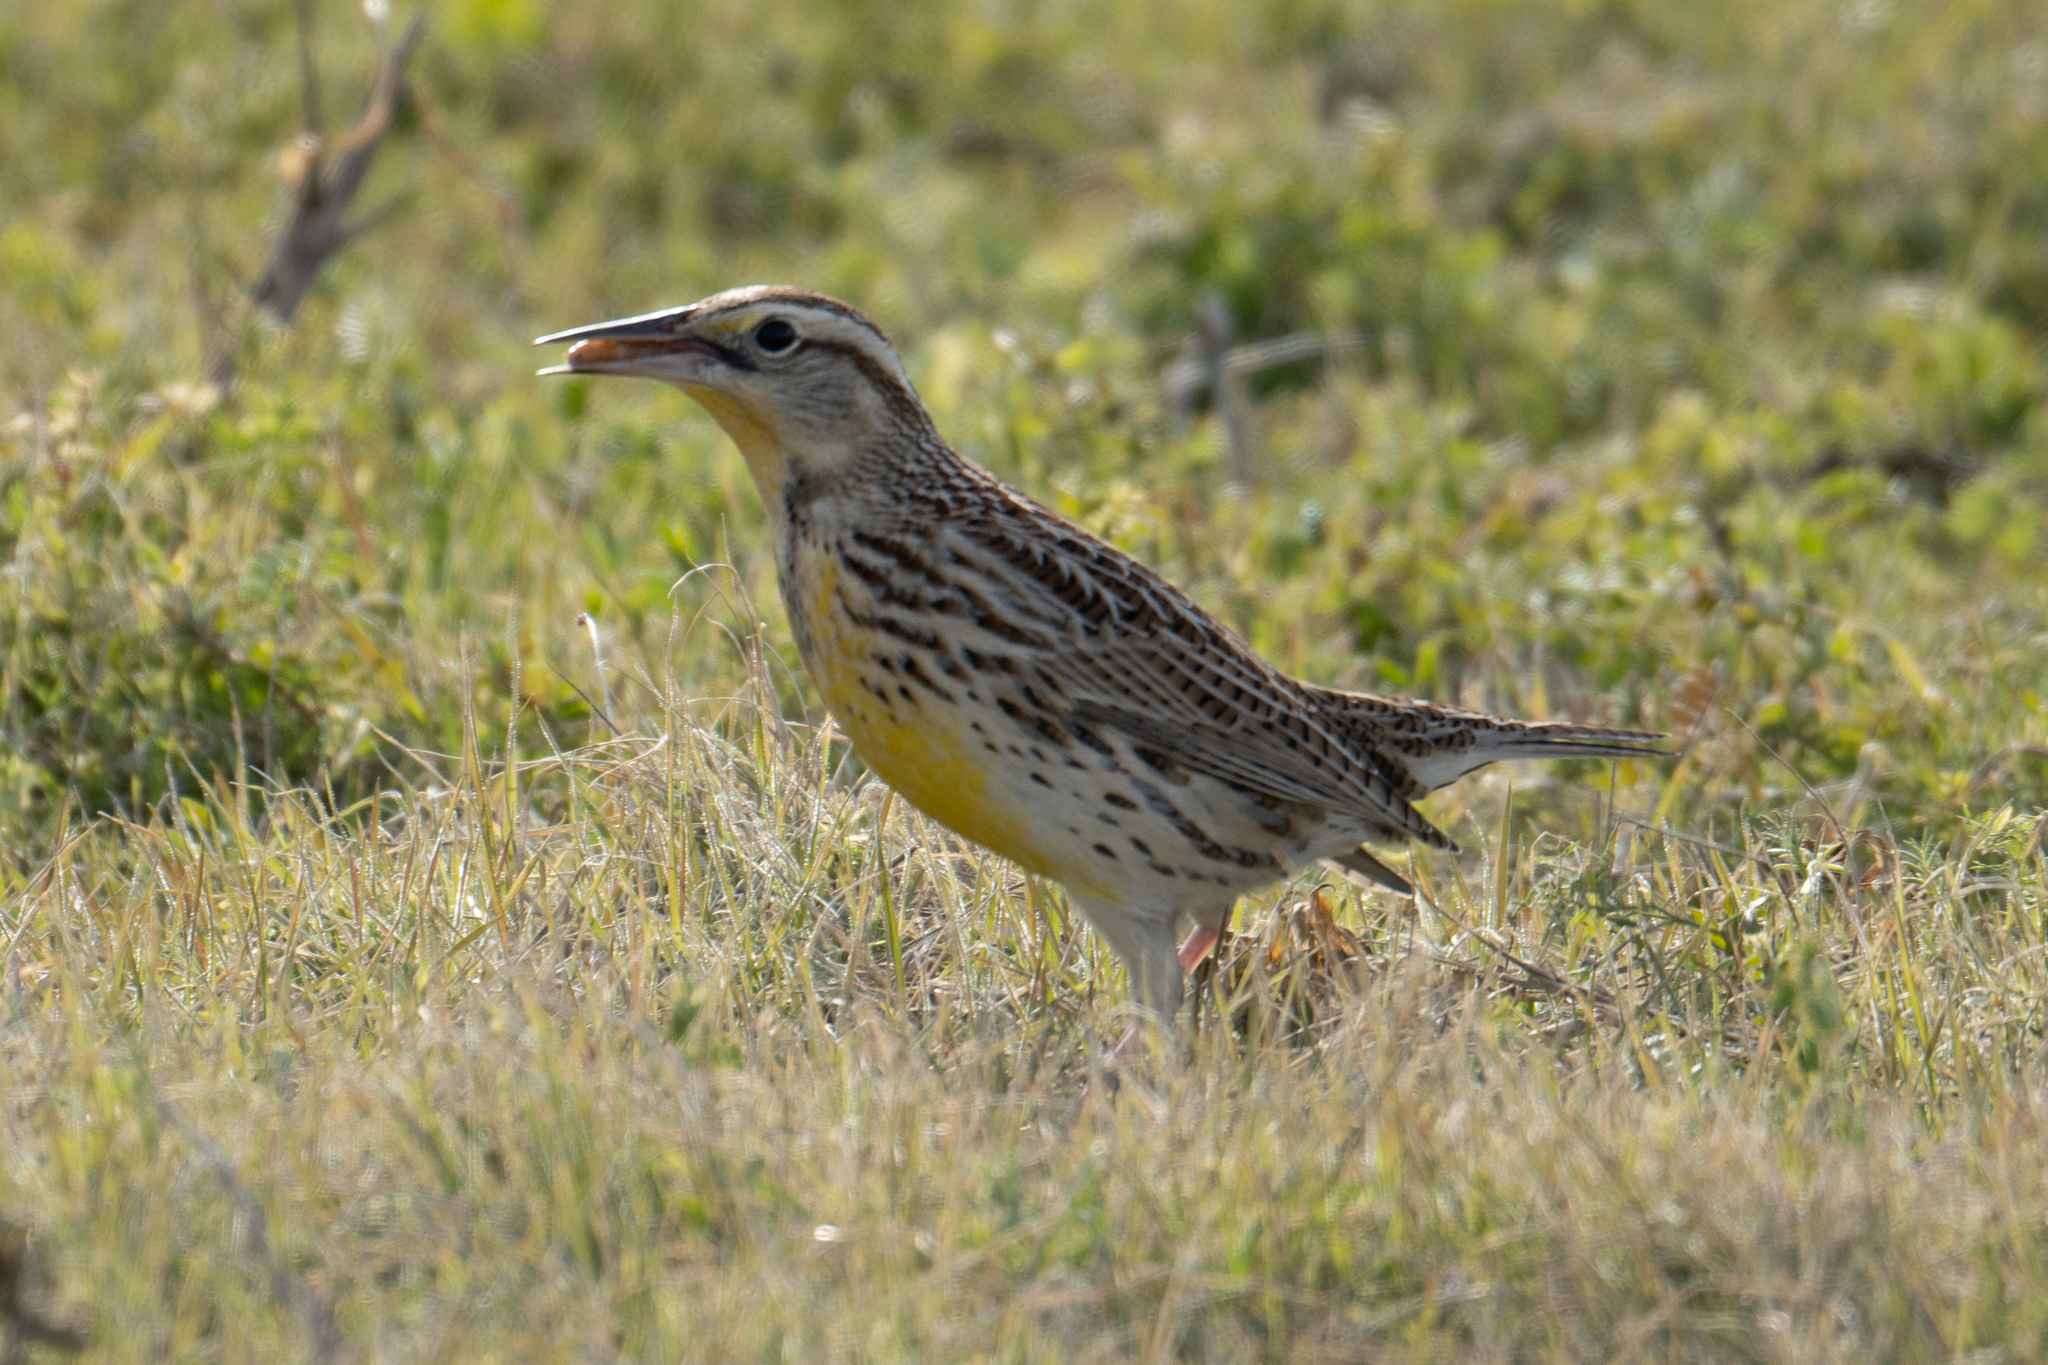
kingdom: Animalia
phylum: Chordata
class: Aves
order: Passeriformes
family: Icteridae
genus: Sturnella
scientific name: Sturnella neglecta
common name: Western meadowlark
